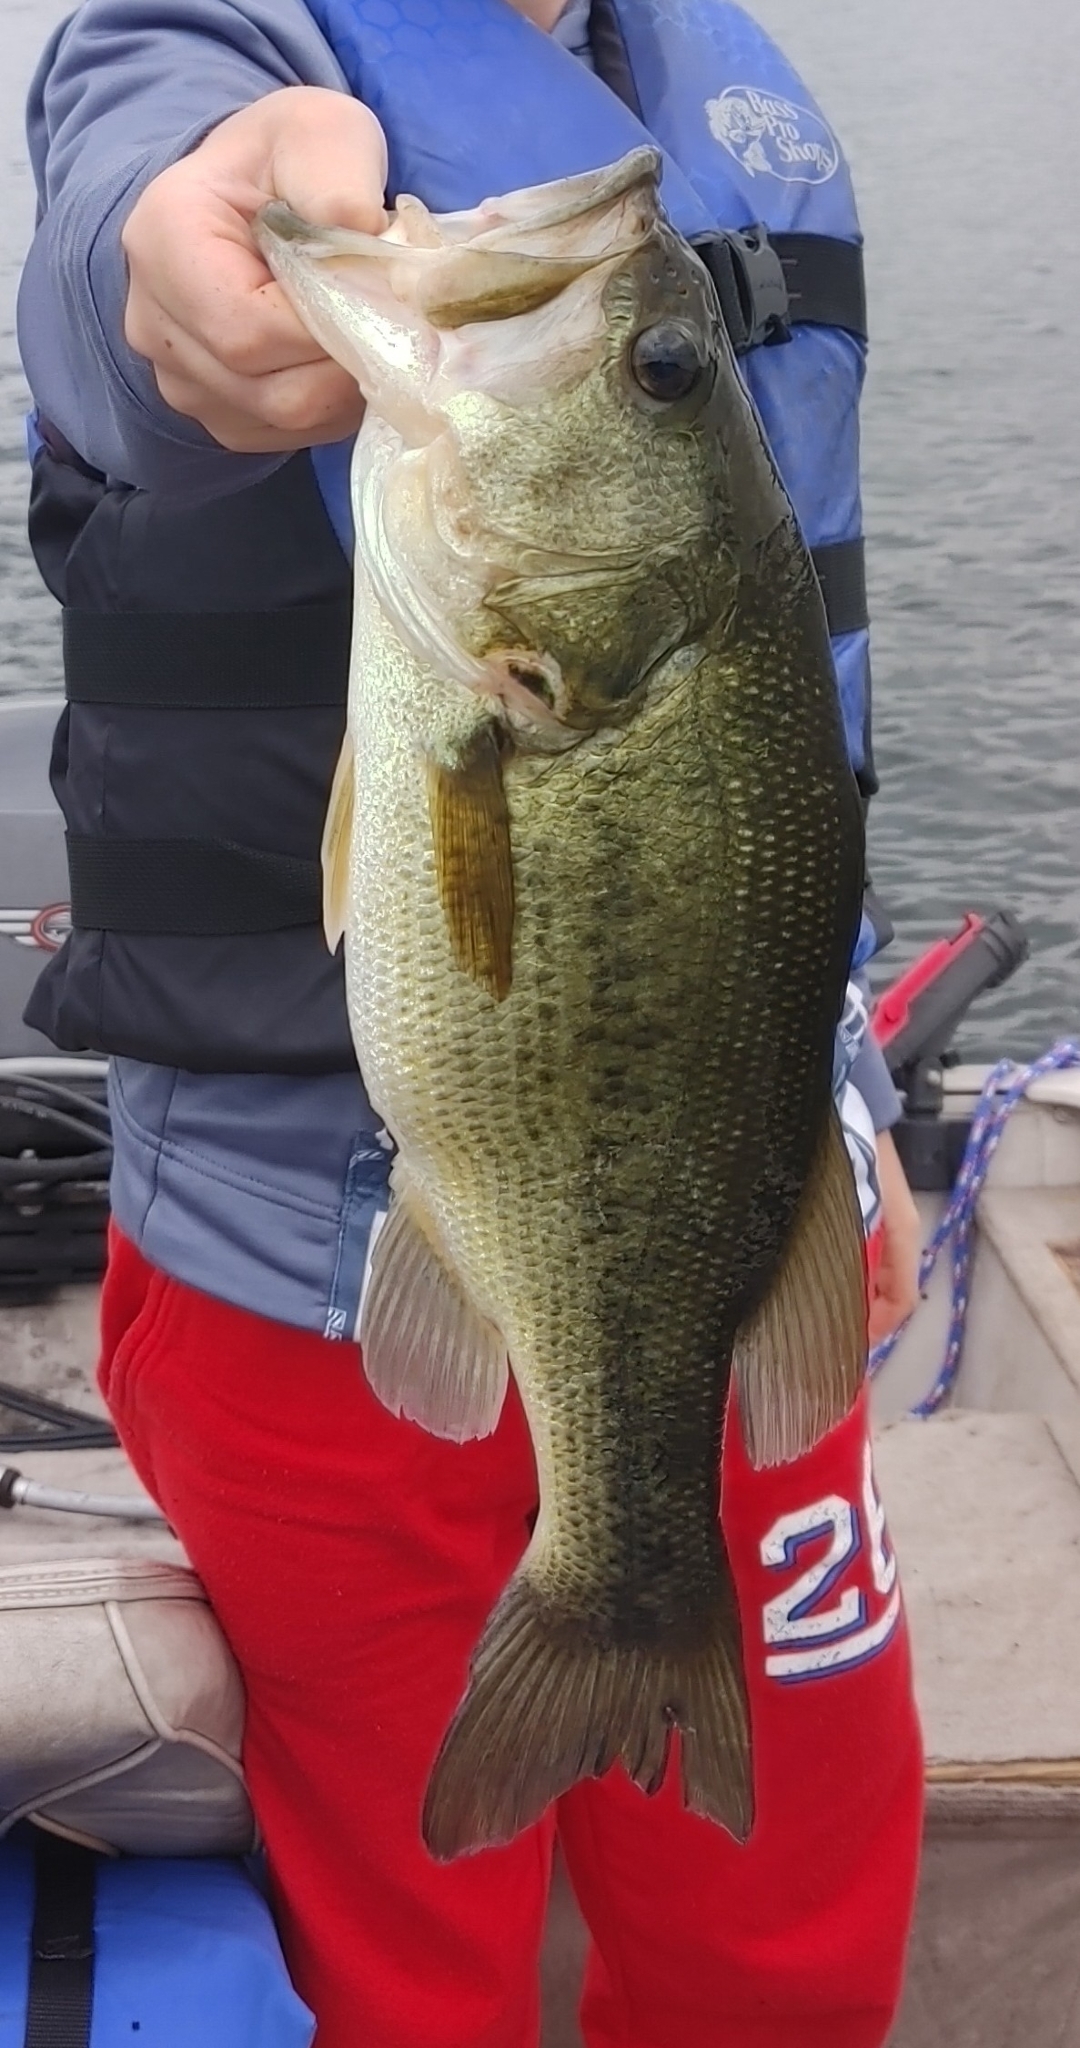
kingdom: Animalia
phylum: Chordata
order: Perciformes
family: Centrarchidae
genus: Micropterus
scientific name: Micropterus
